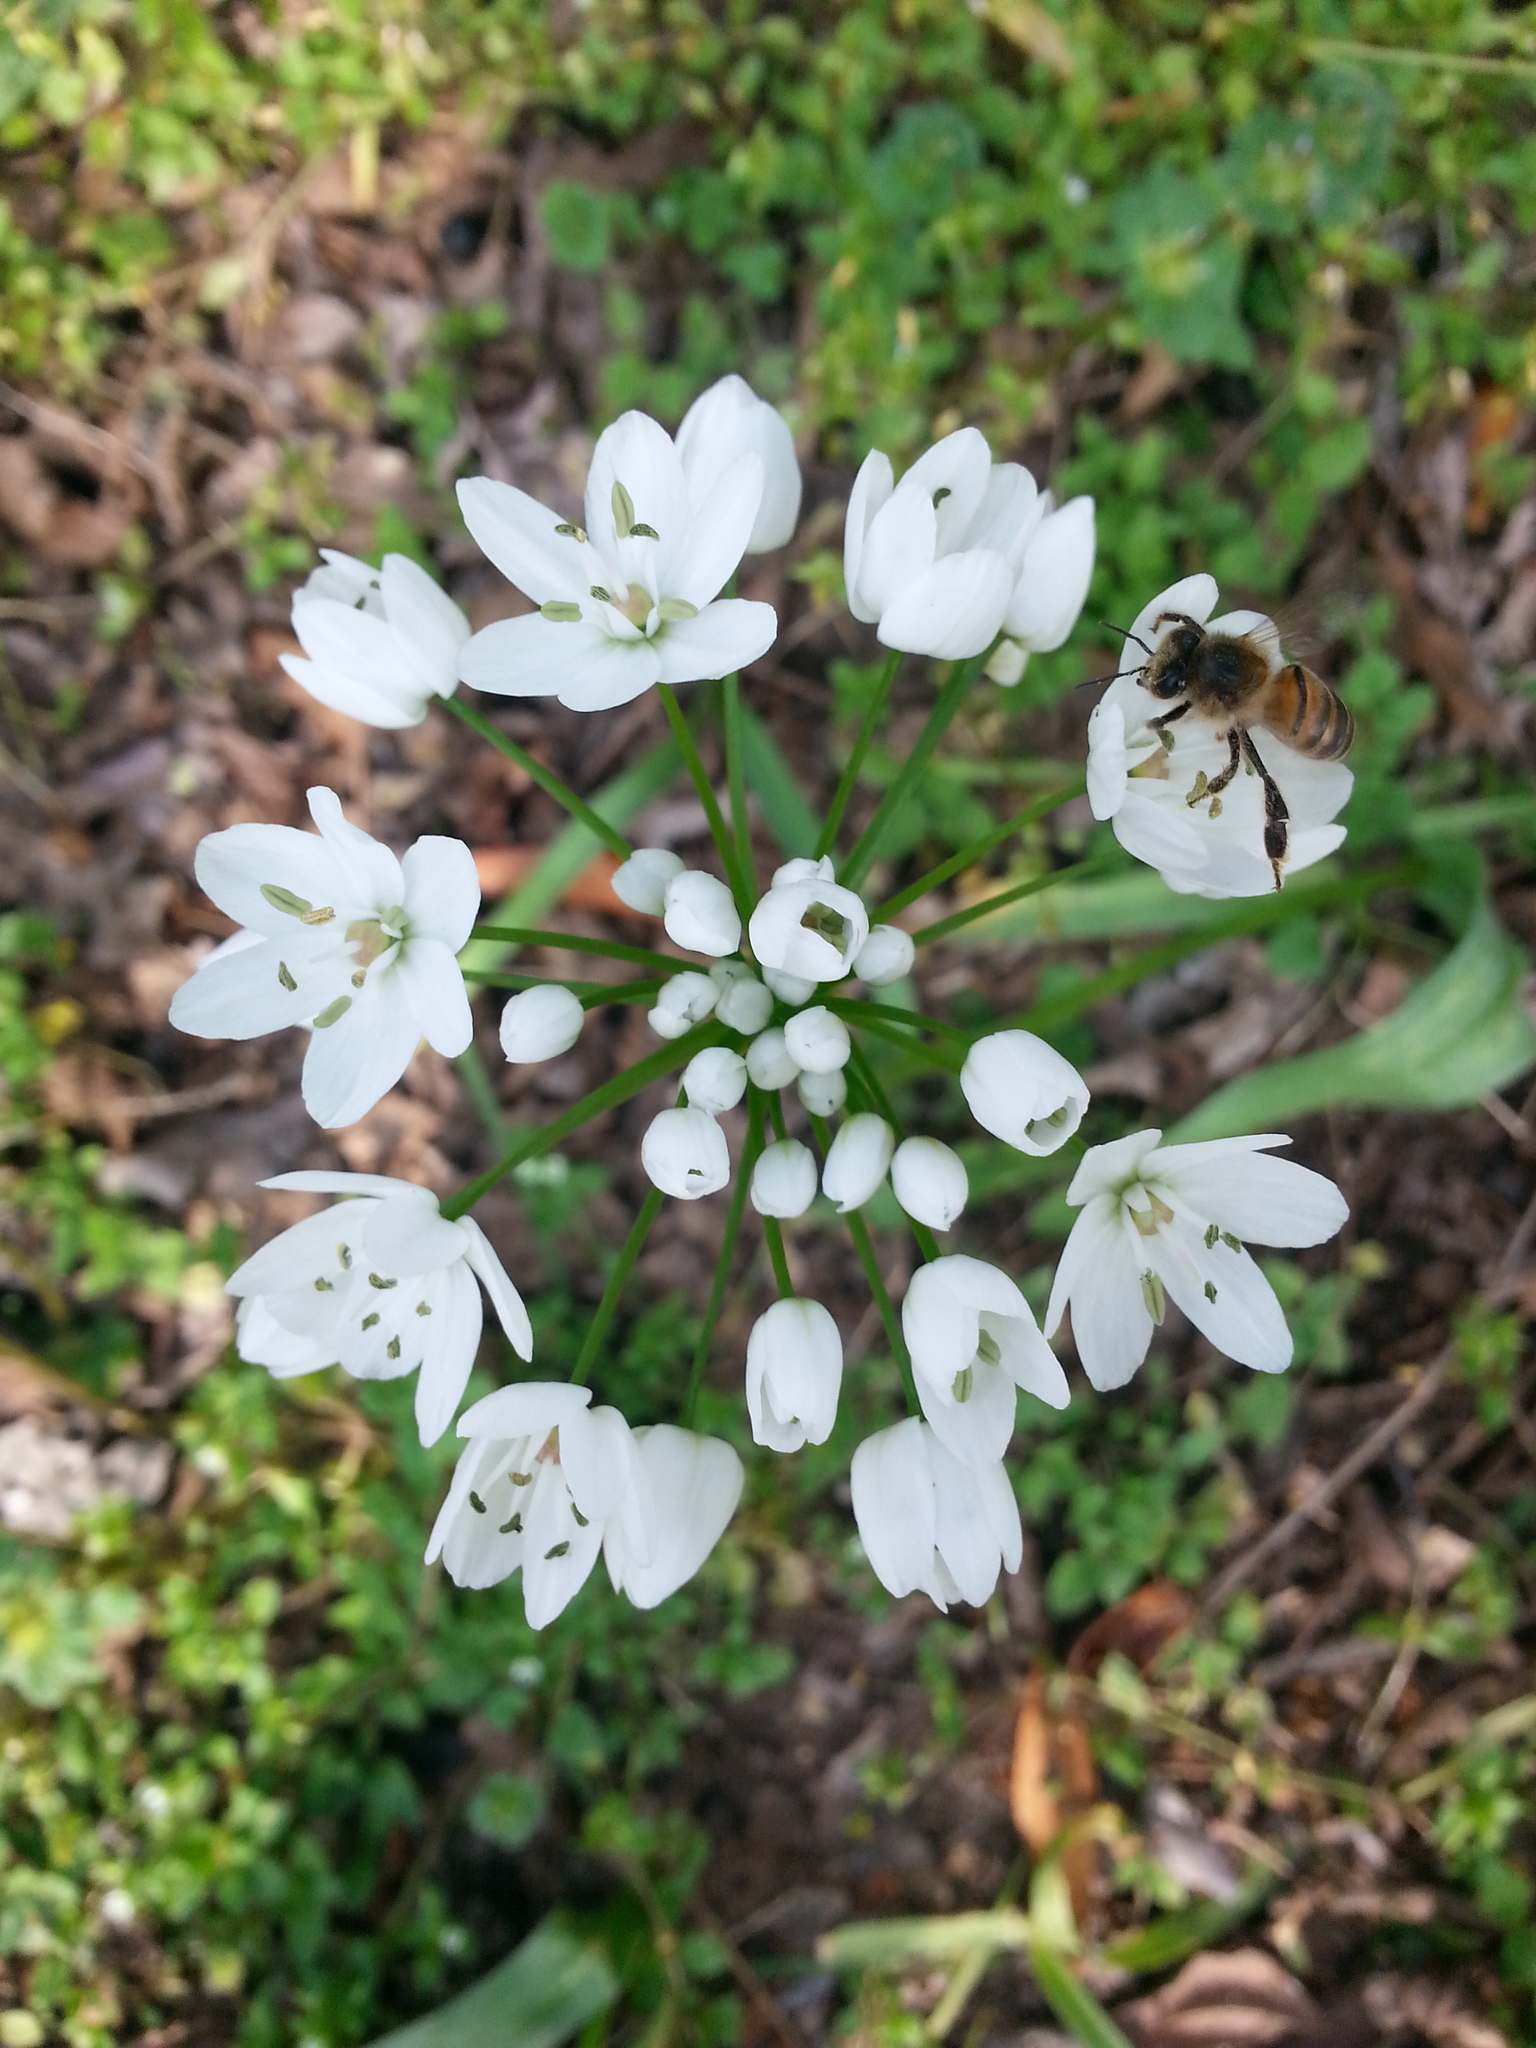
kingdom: Plantae
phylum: Tracheophyta
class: Liliopsida
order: Asparagales
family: Amaryllidaceae
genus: Allium
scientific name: Allium neapolitanum
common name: Neapolitan garlic
